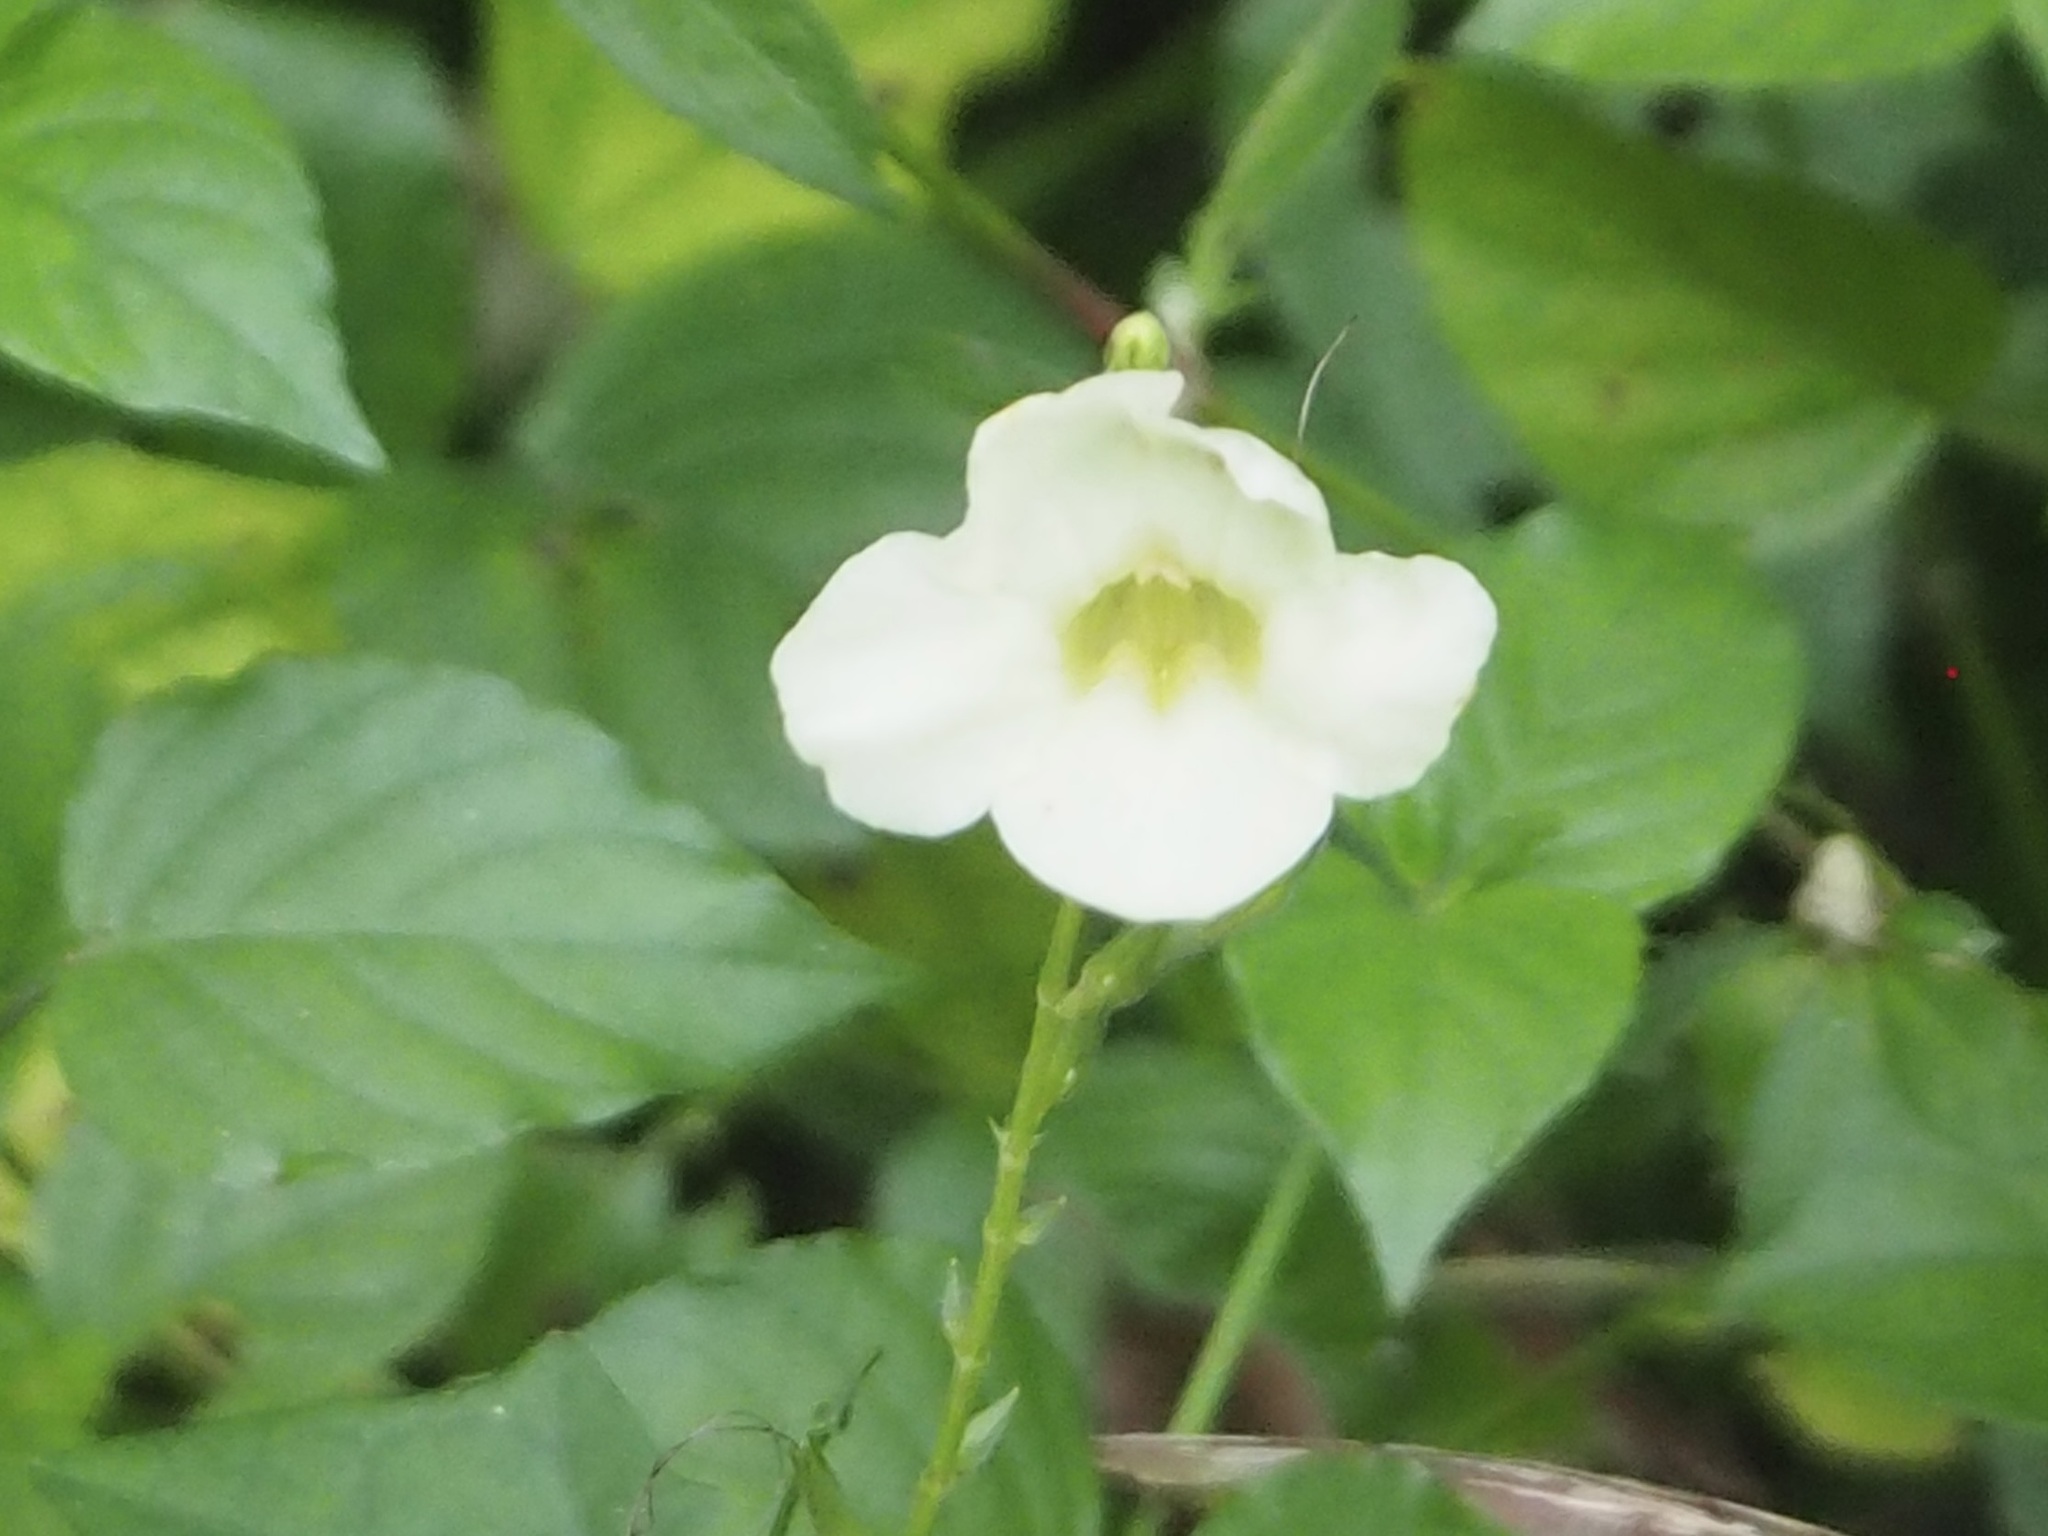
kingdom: Plantae
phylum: Tracheophyta
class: Magnoliopsida
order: Lamiales
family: Acanthaceae
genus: Asystasia
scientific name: Asystasia gangetica
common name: Chinese violet
